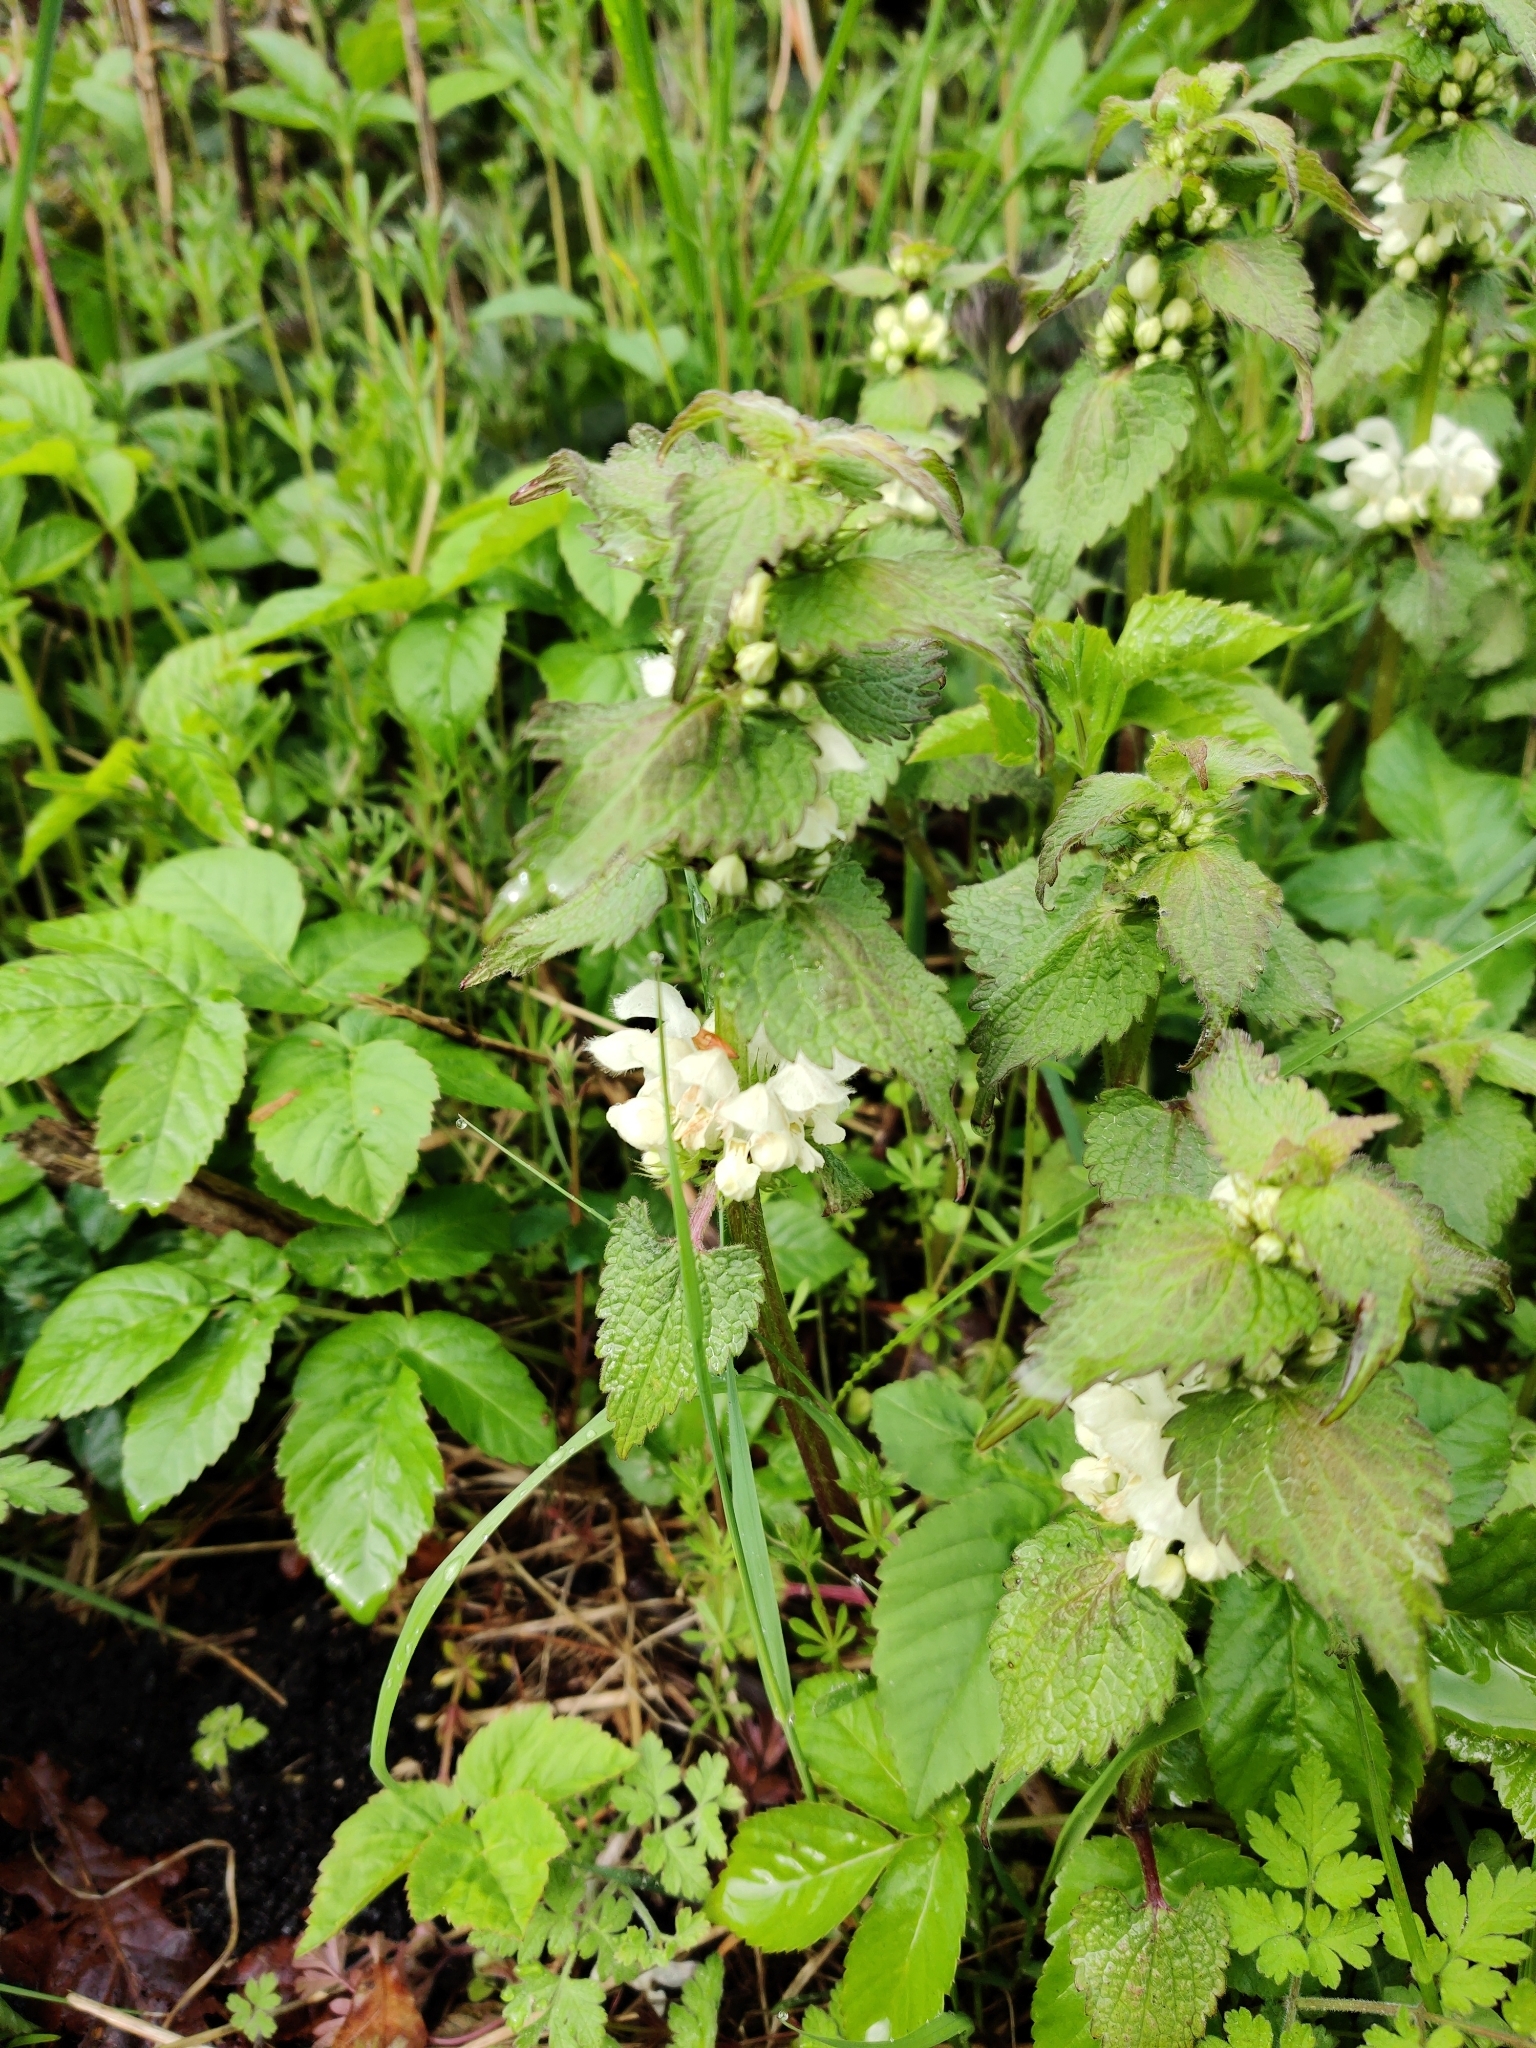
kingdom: Plantae
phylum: Tracheophyta
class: Magnoliopsida
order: Lamiales
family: Lamiaceae
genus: Lamium
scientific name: Lamium album
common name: White dead-nettle
